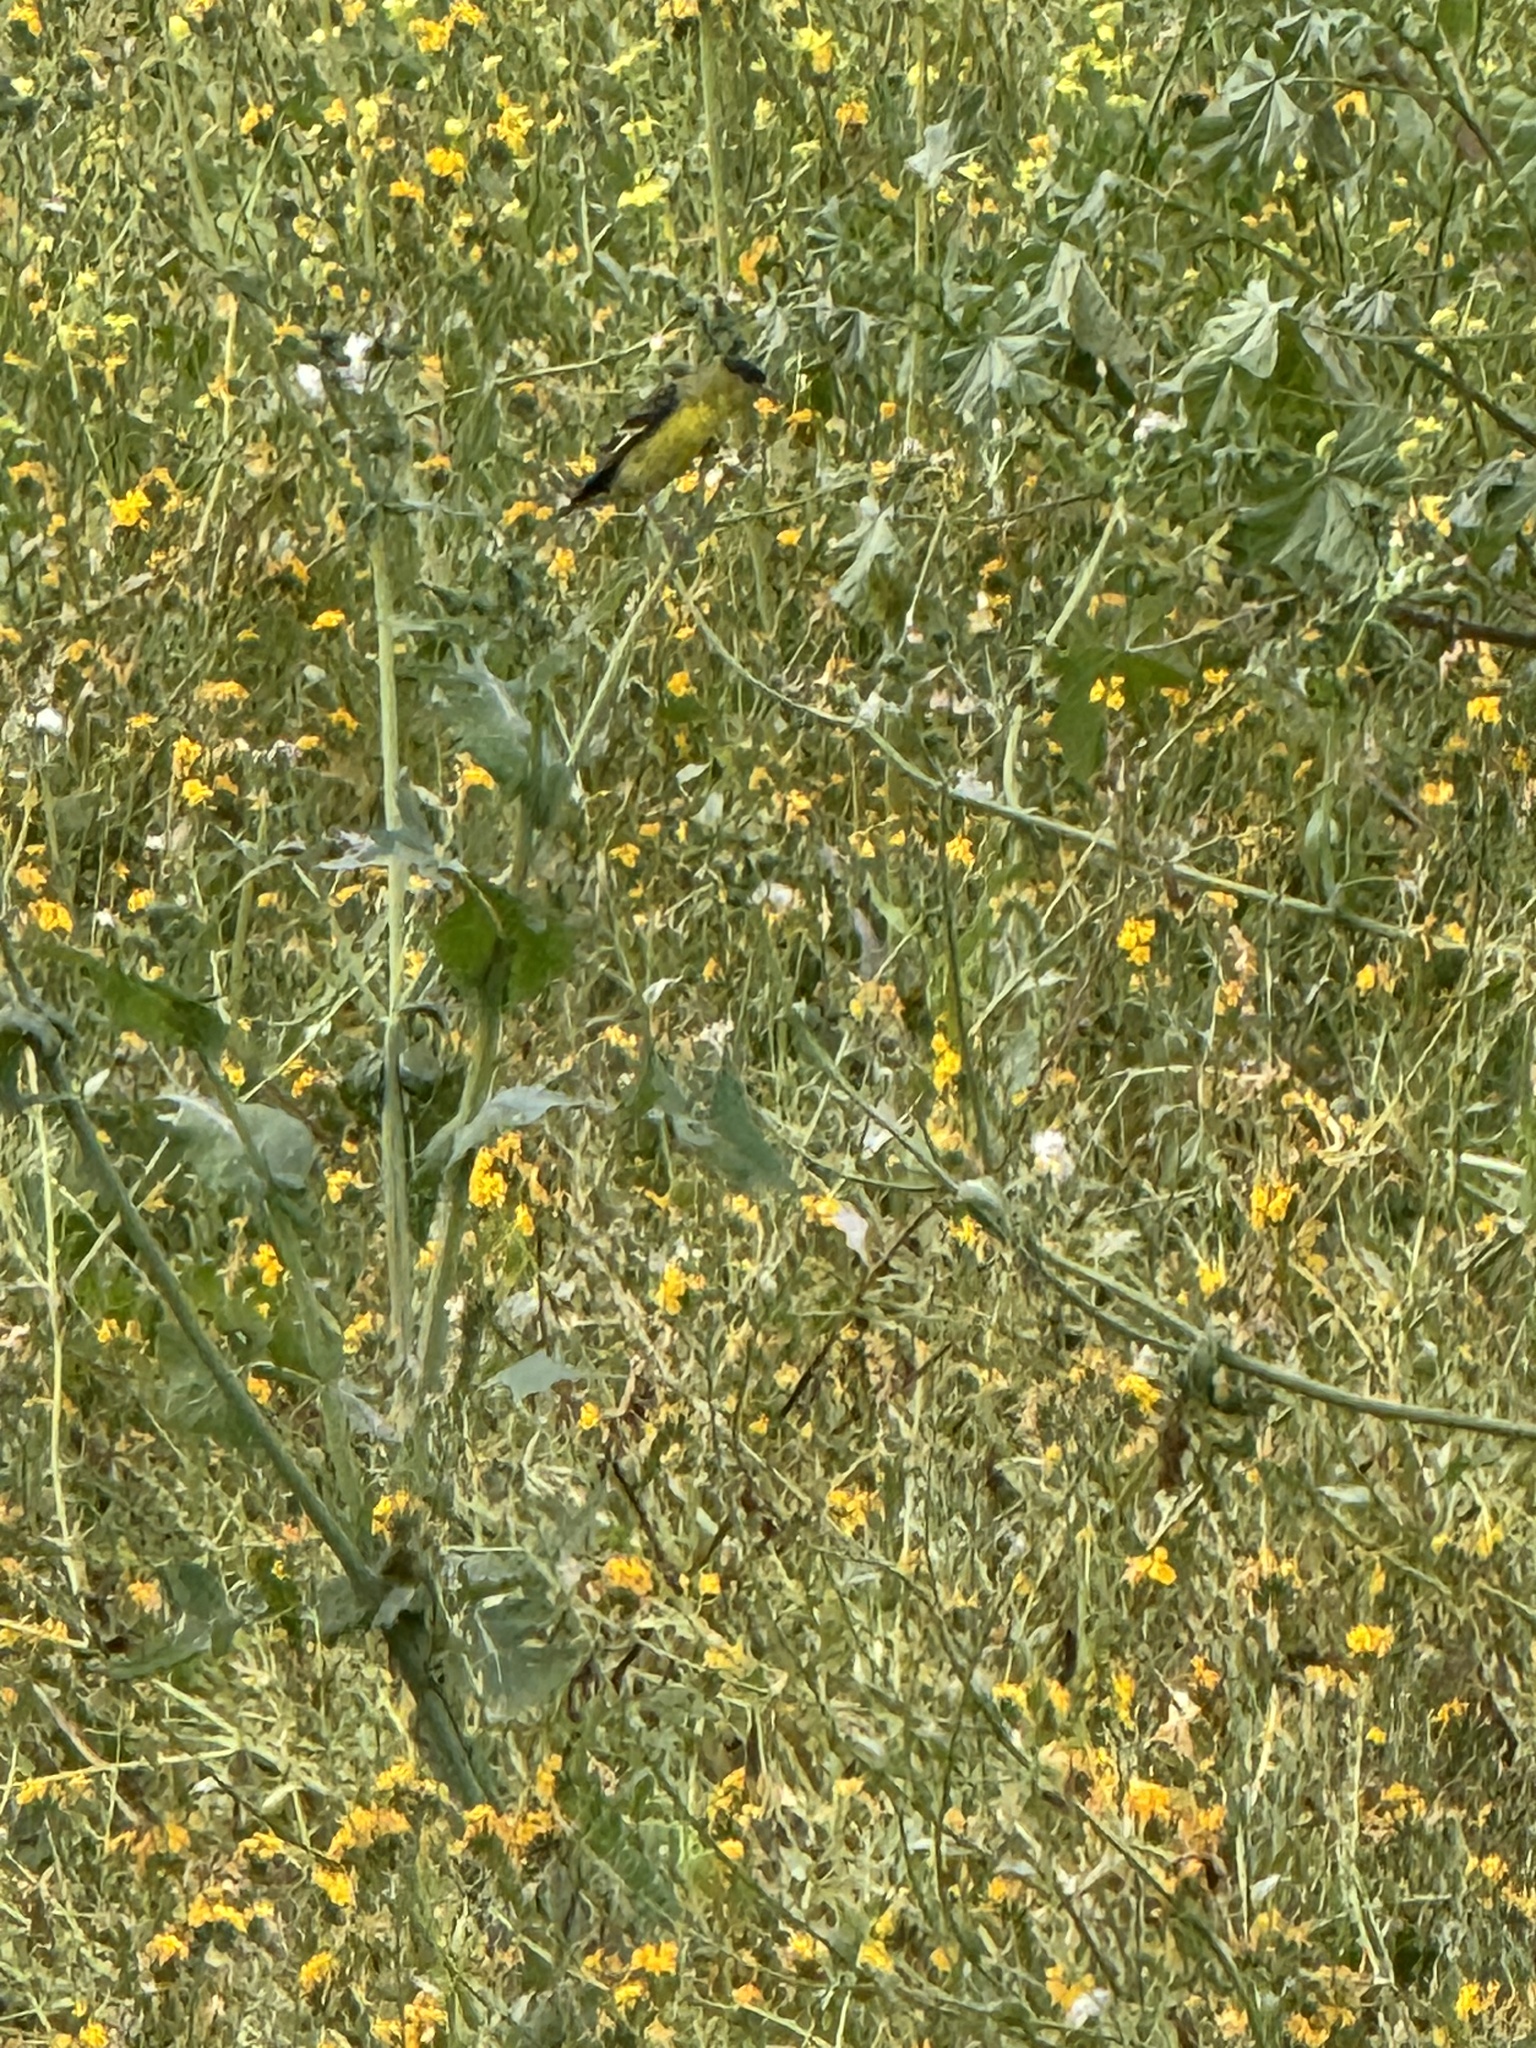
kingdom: Animalia
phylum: Chordata
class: Aves
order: Passeriformes
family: Fringillidae
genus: Spinus
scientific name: Spinus psaltria
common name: Lesser goldfinch
